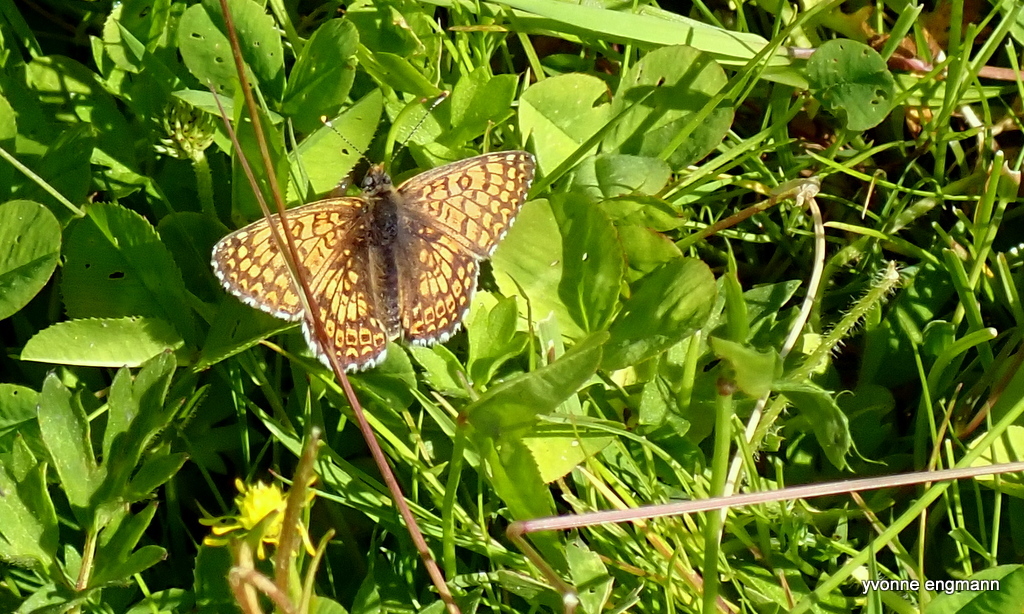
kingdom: Animalia
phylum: Arthropoda
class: Insecta
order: Lepidoptera
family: Nymphalidae
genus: Melitaea
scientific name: Melitaea cinxia
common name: Glanville fritillary
